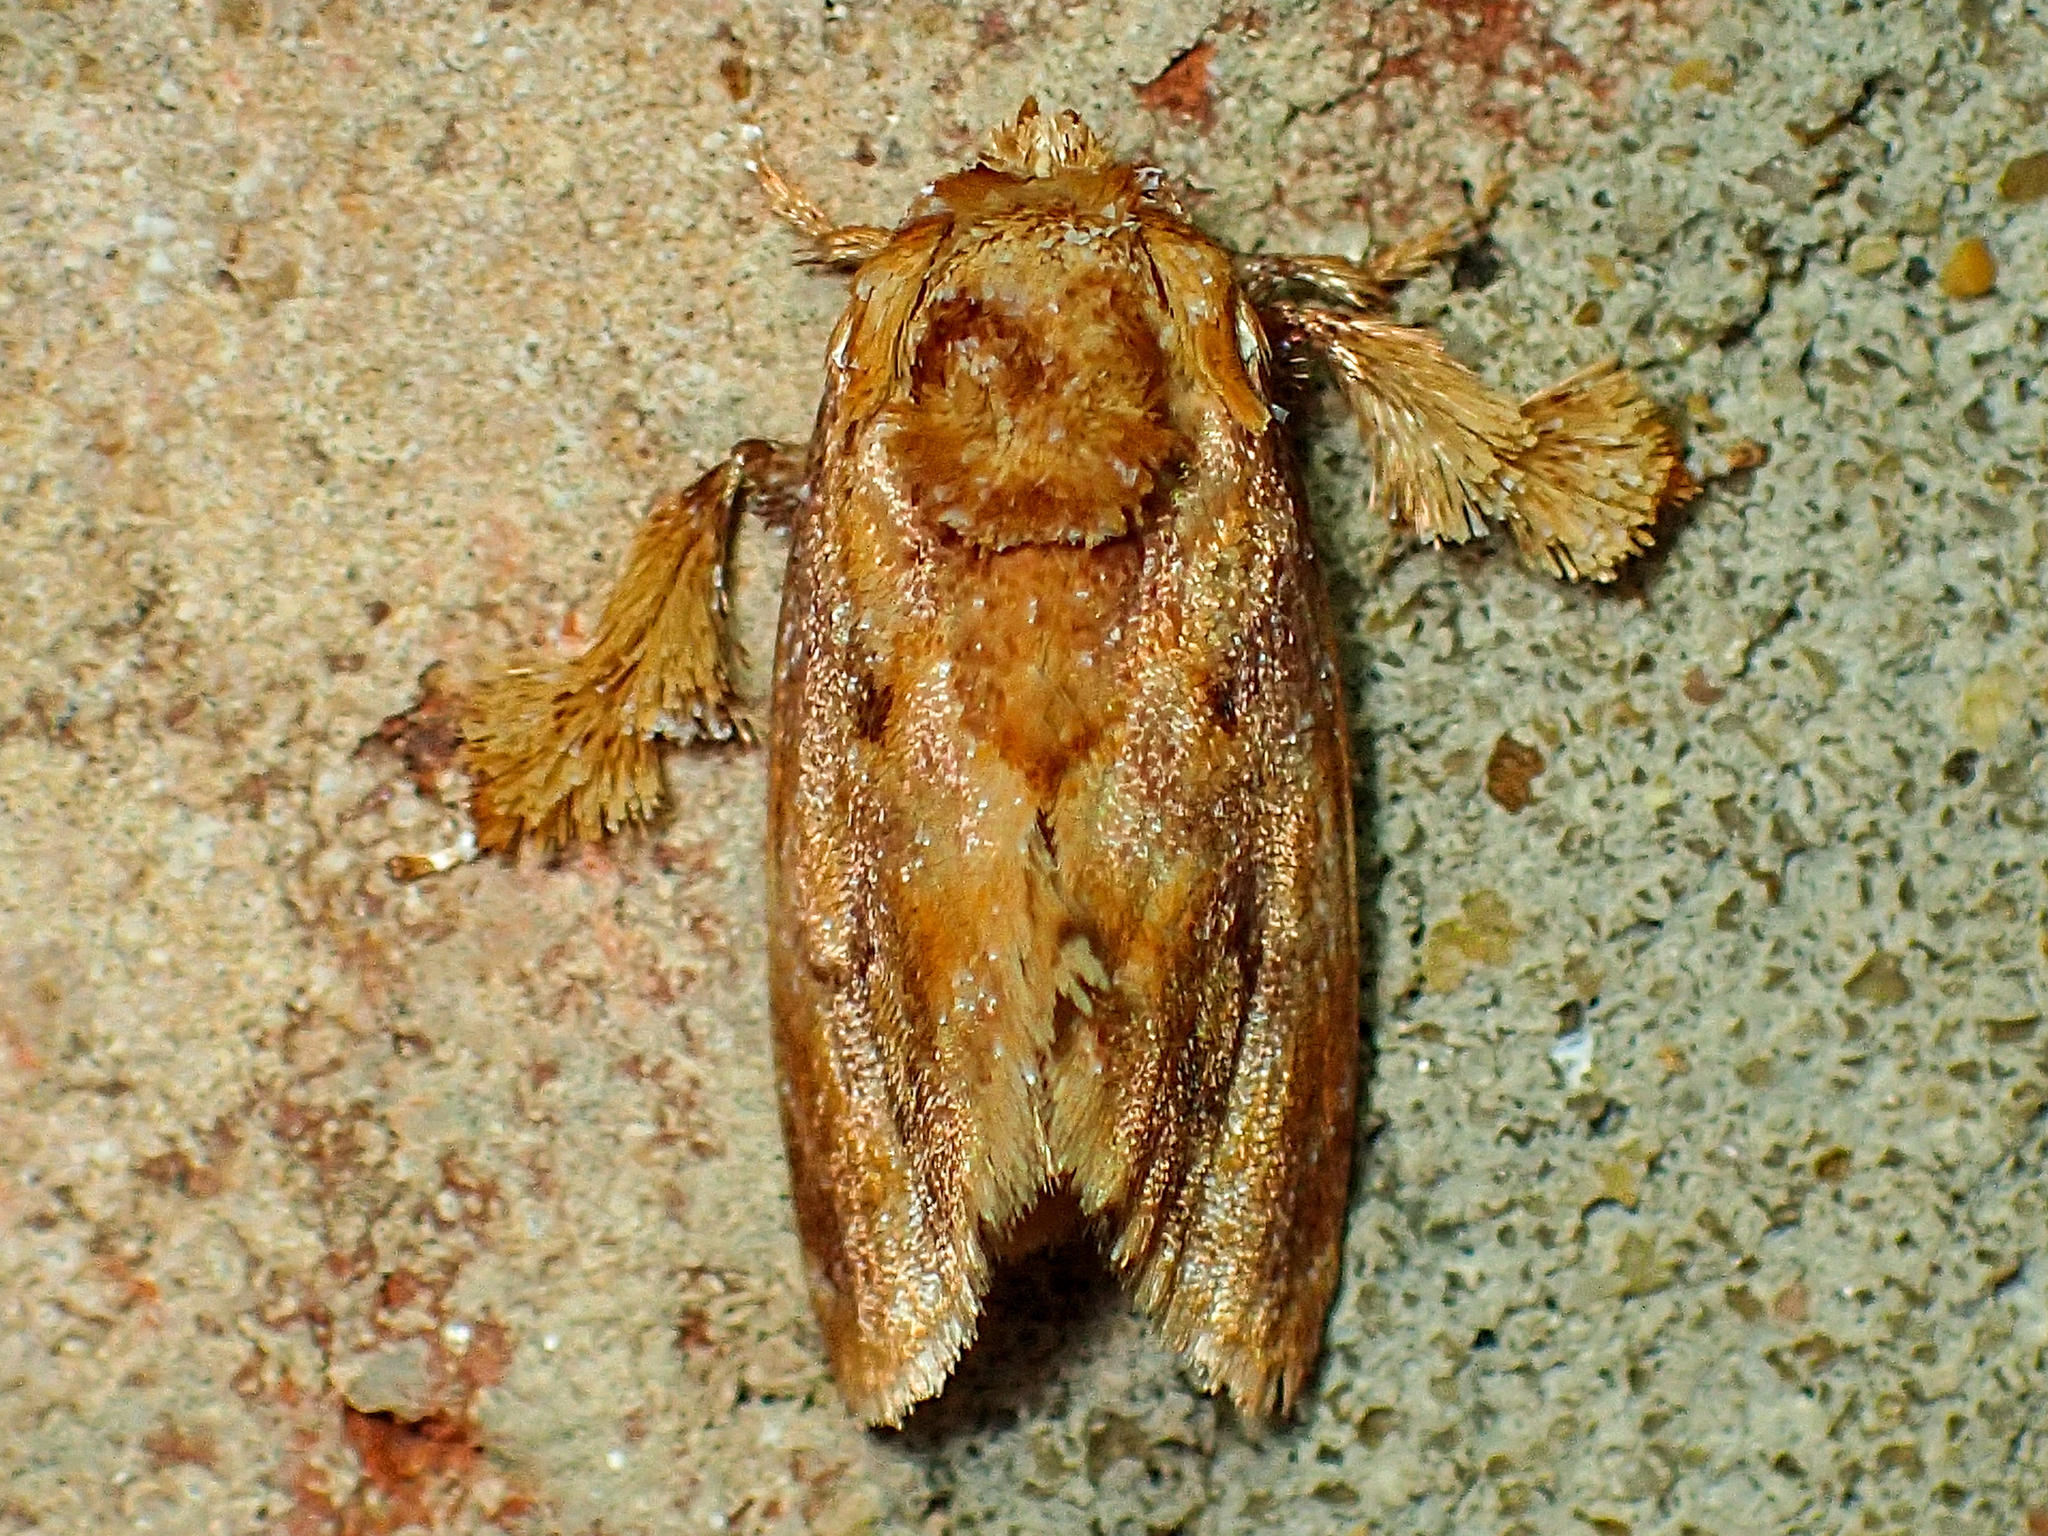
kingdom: Animalia
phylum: Arthropoda
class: Insecta
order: Lepidoptera
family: Limacodidae
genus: Isochaetes
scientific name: Isochaetes beutenmuelleri
